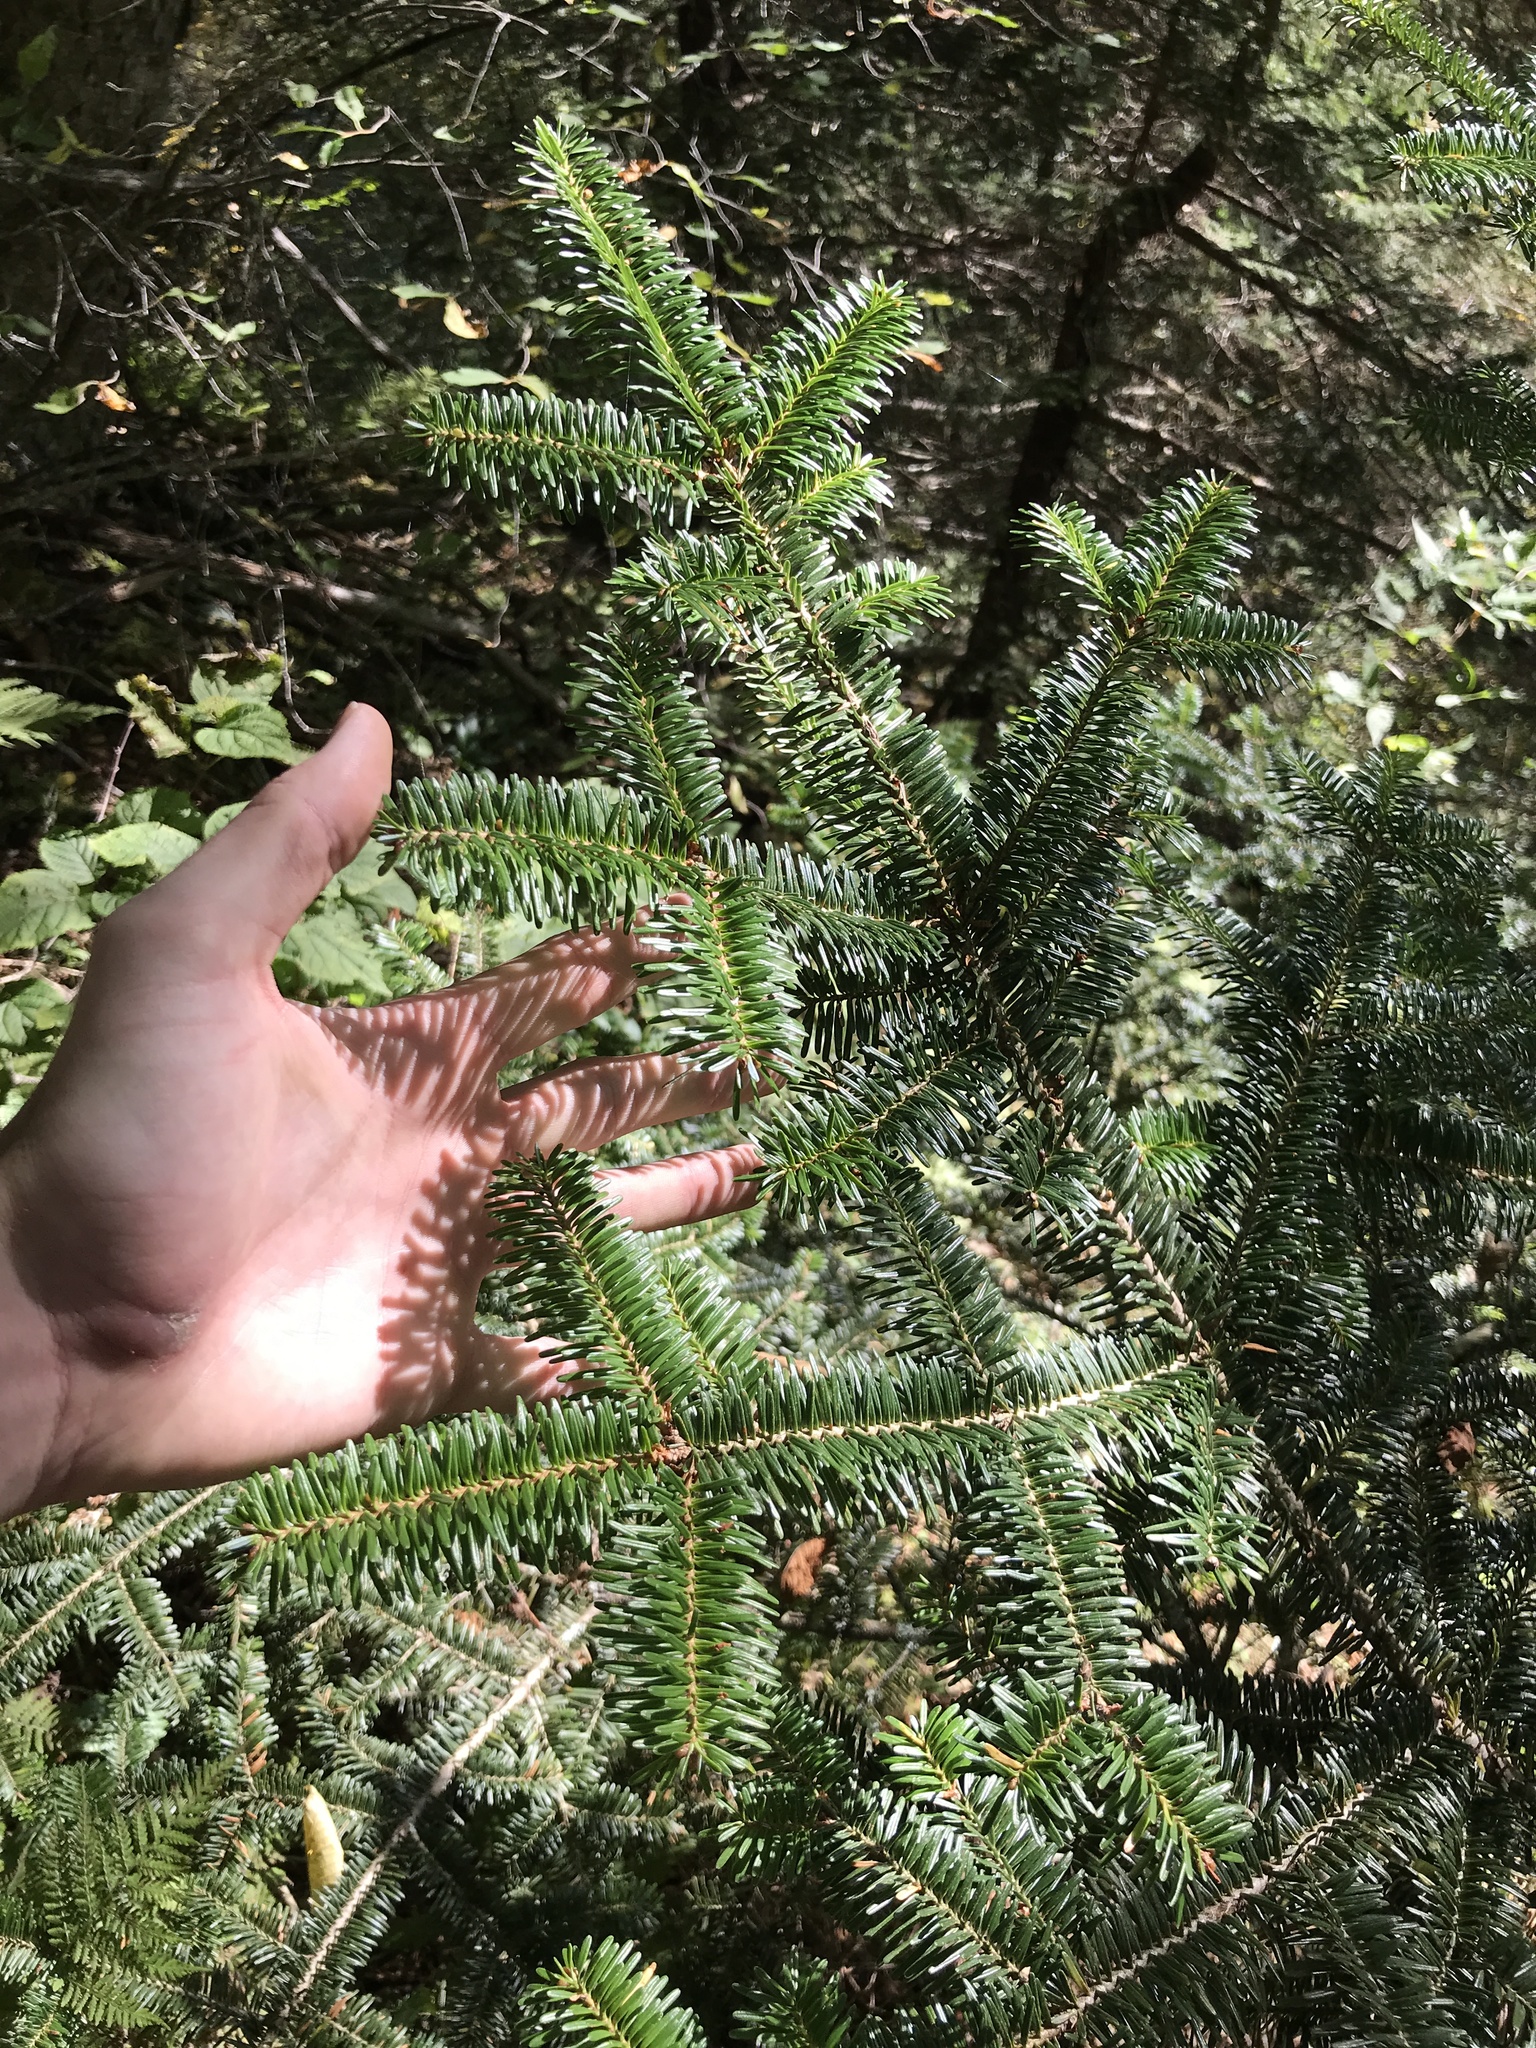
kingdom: Plantae
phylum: Tracheophyta
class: Pinopsida
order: Pinales
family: Pinaceae
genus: Abies
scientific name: Abies fraseri
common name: Fraser fir
